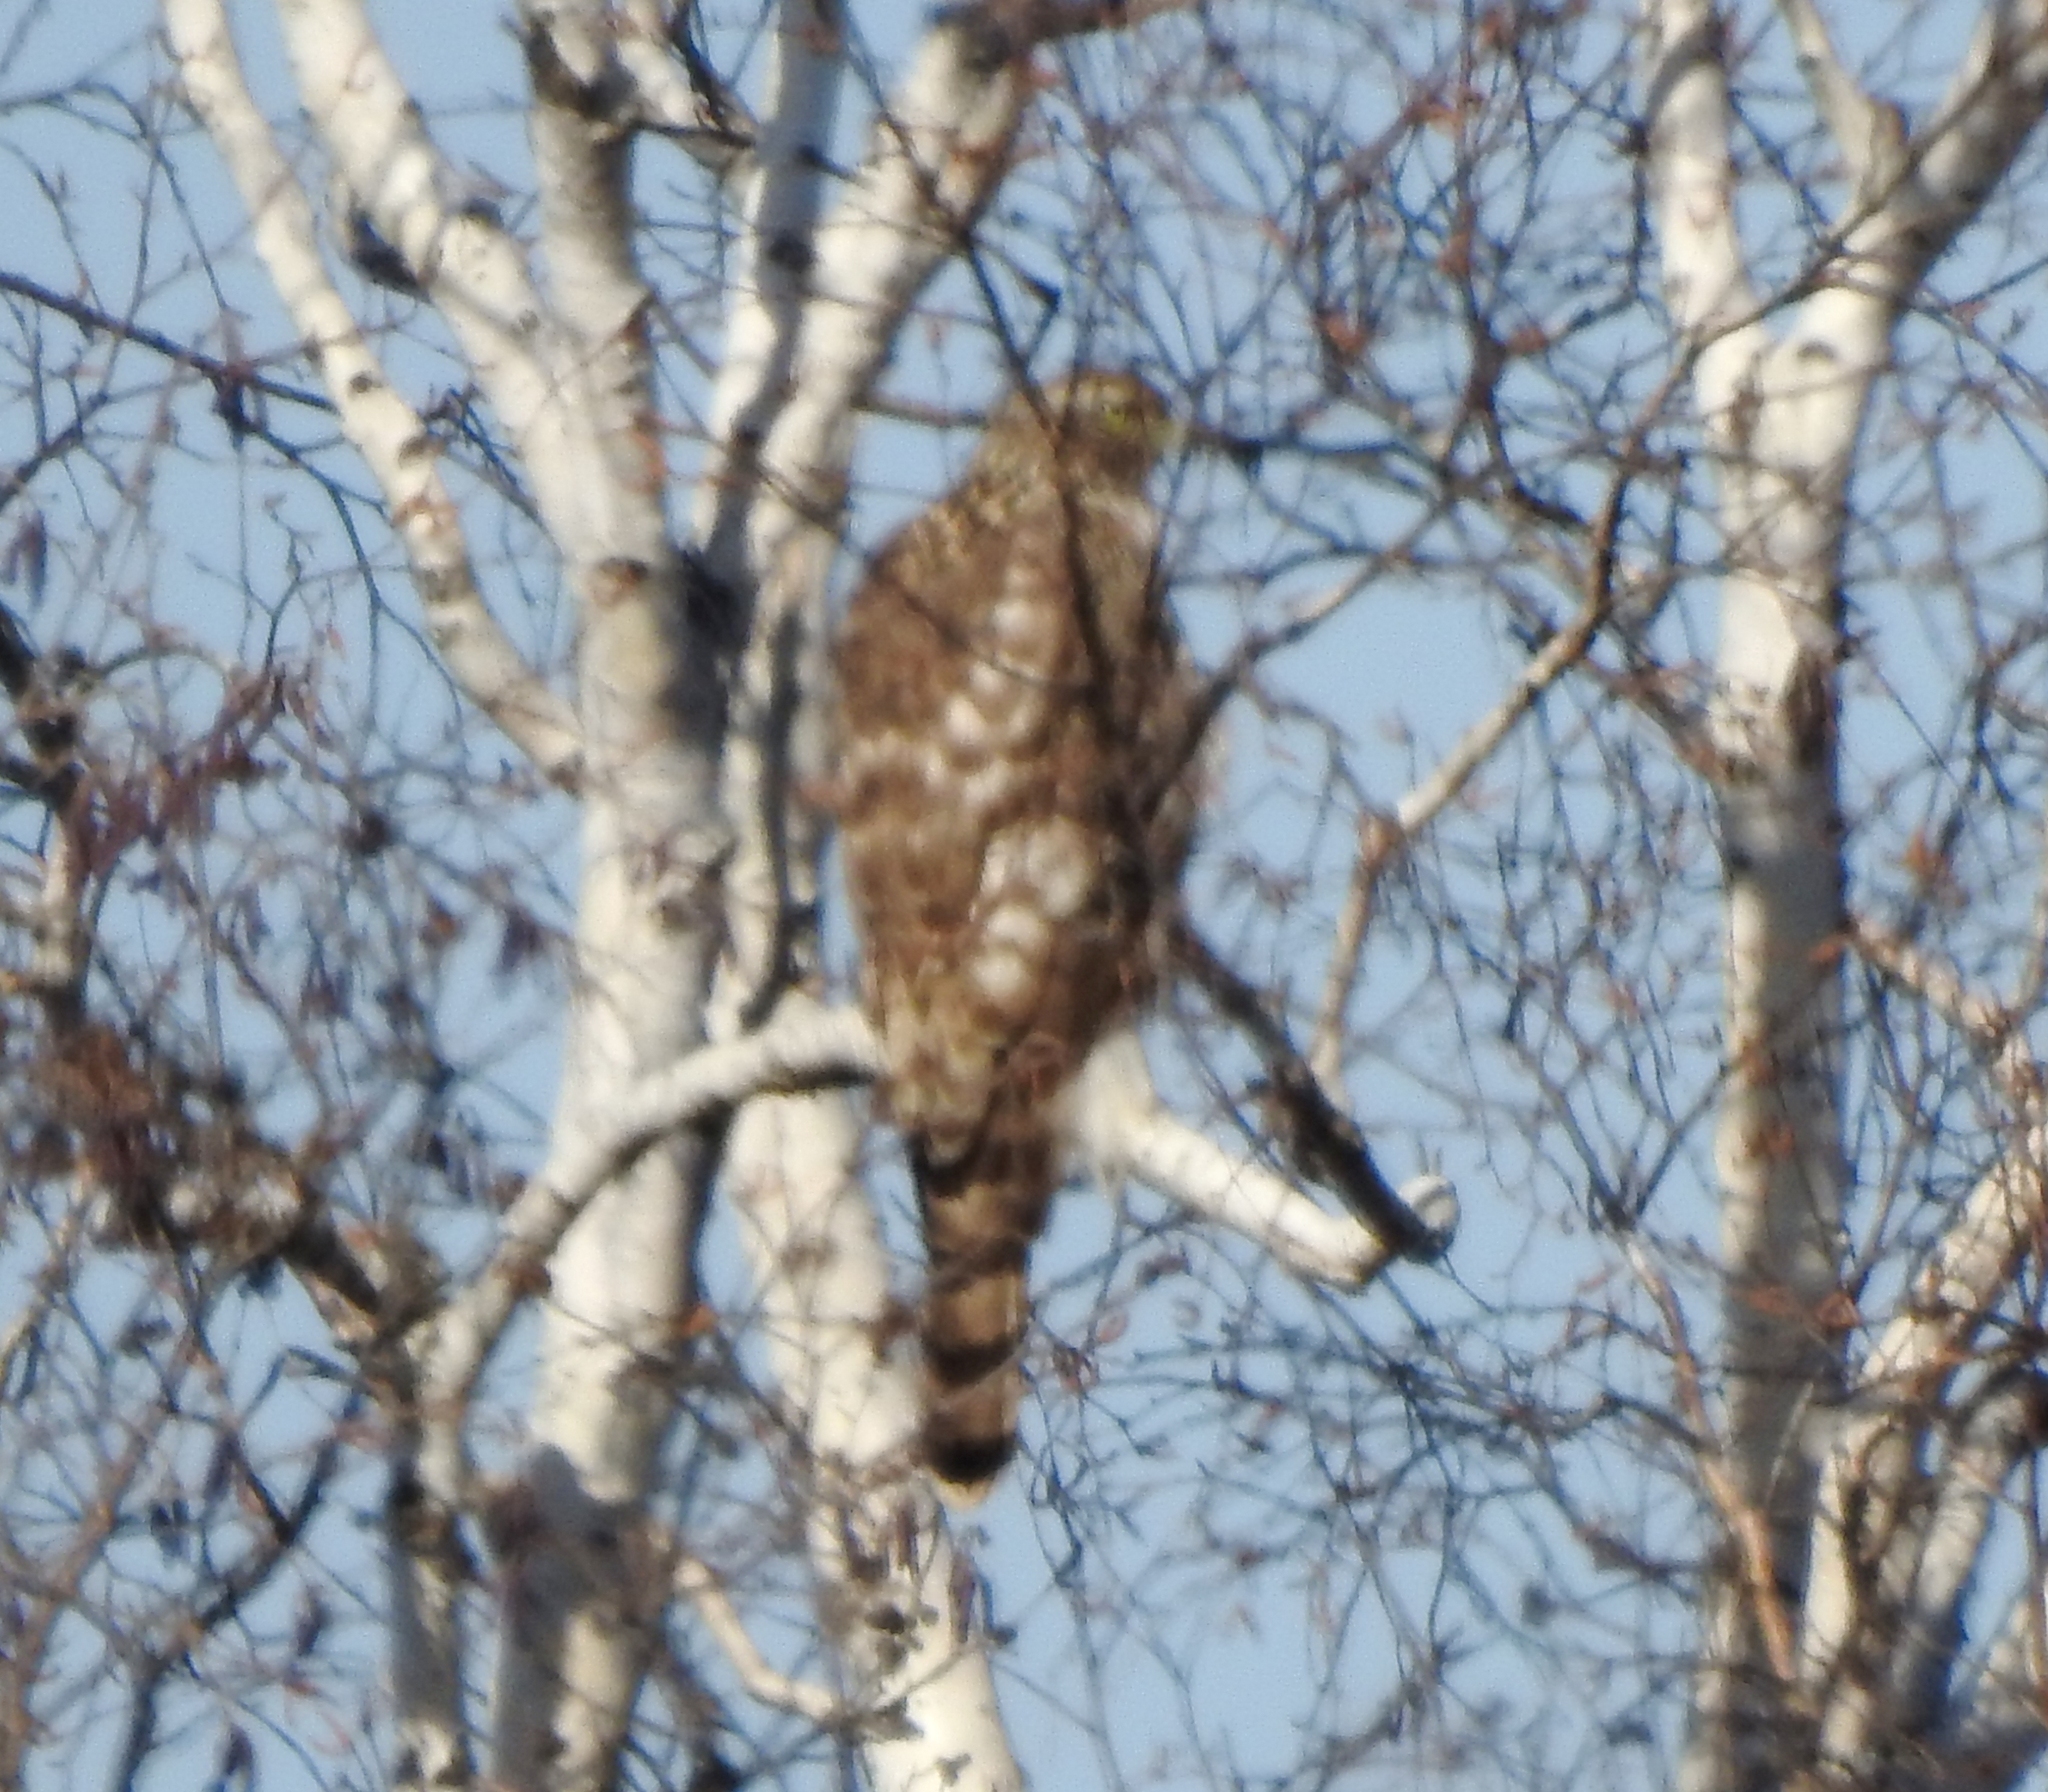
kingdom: Animalia
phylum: Chordata
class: Aves
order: Accipitriformes
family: Accipitridae
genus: Accipiter
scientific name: Accipiter gentilis
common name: Northern goshawk
